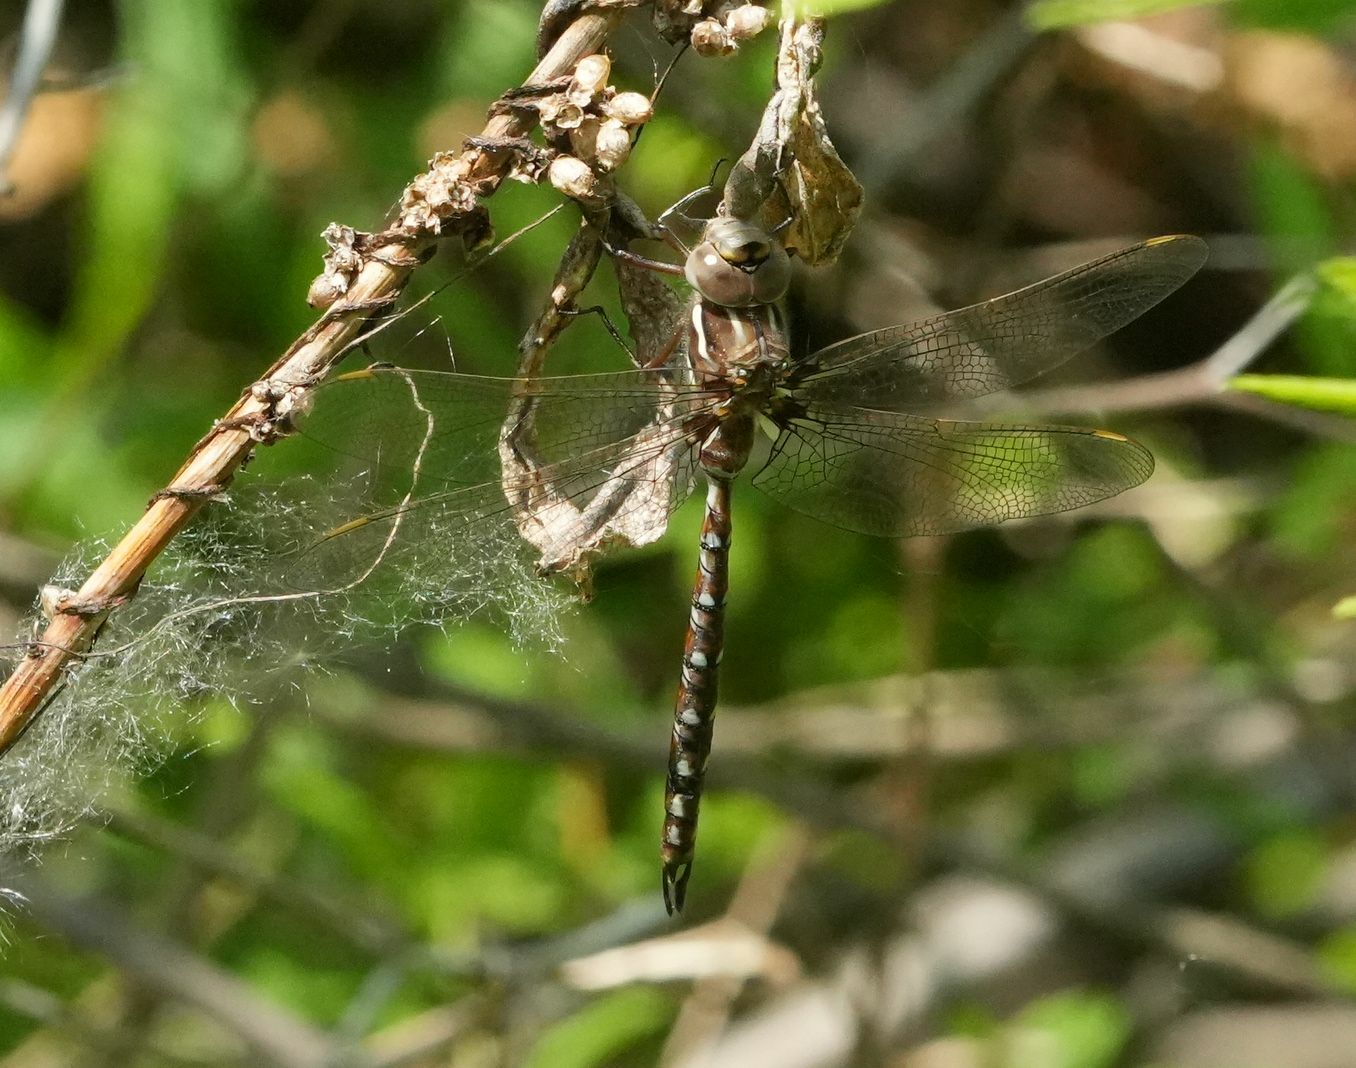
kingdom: Animalia
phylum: Arthropoda
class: Insecta
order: Odonata
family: Aeshnidae
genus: Basiaeschna
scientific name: Basiaeschna janata
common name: Springtime darner
